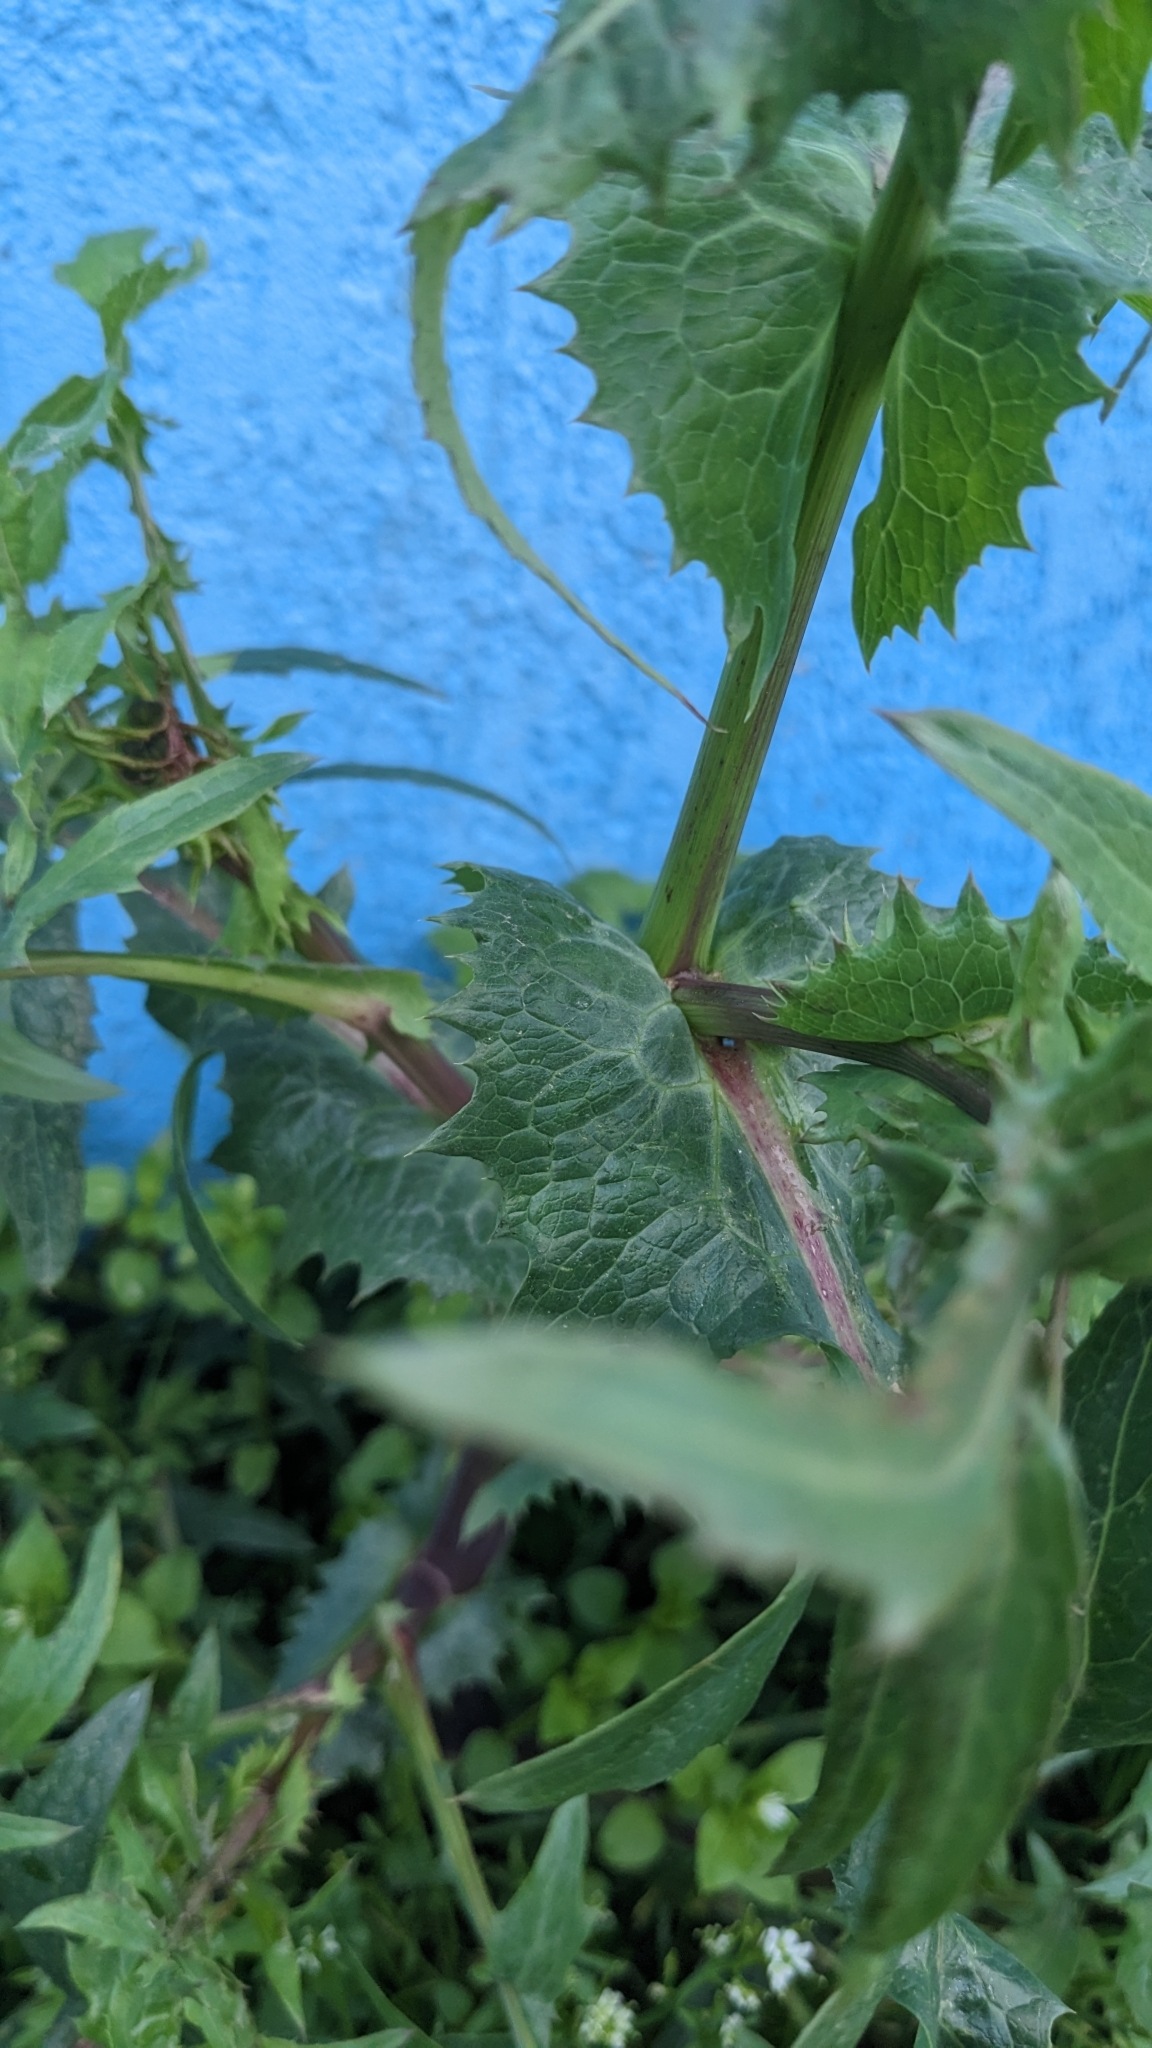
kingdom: Plantae
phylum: Tracheophyta
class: Magnoliopsida
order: Asterales
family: Asteraceae
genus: Sonchus
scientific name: Sonchus oleraceus
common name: Common sowthistle
